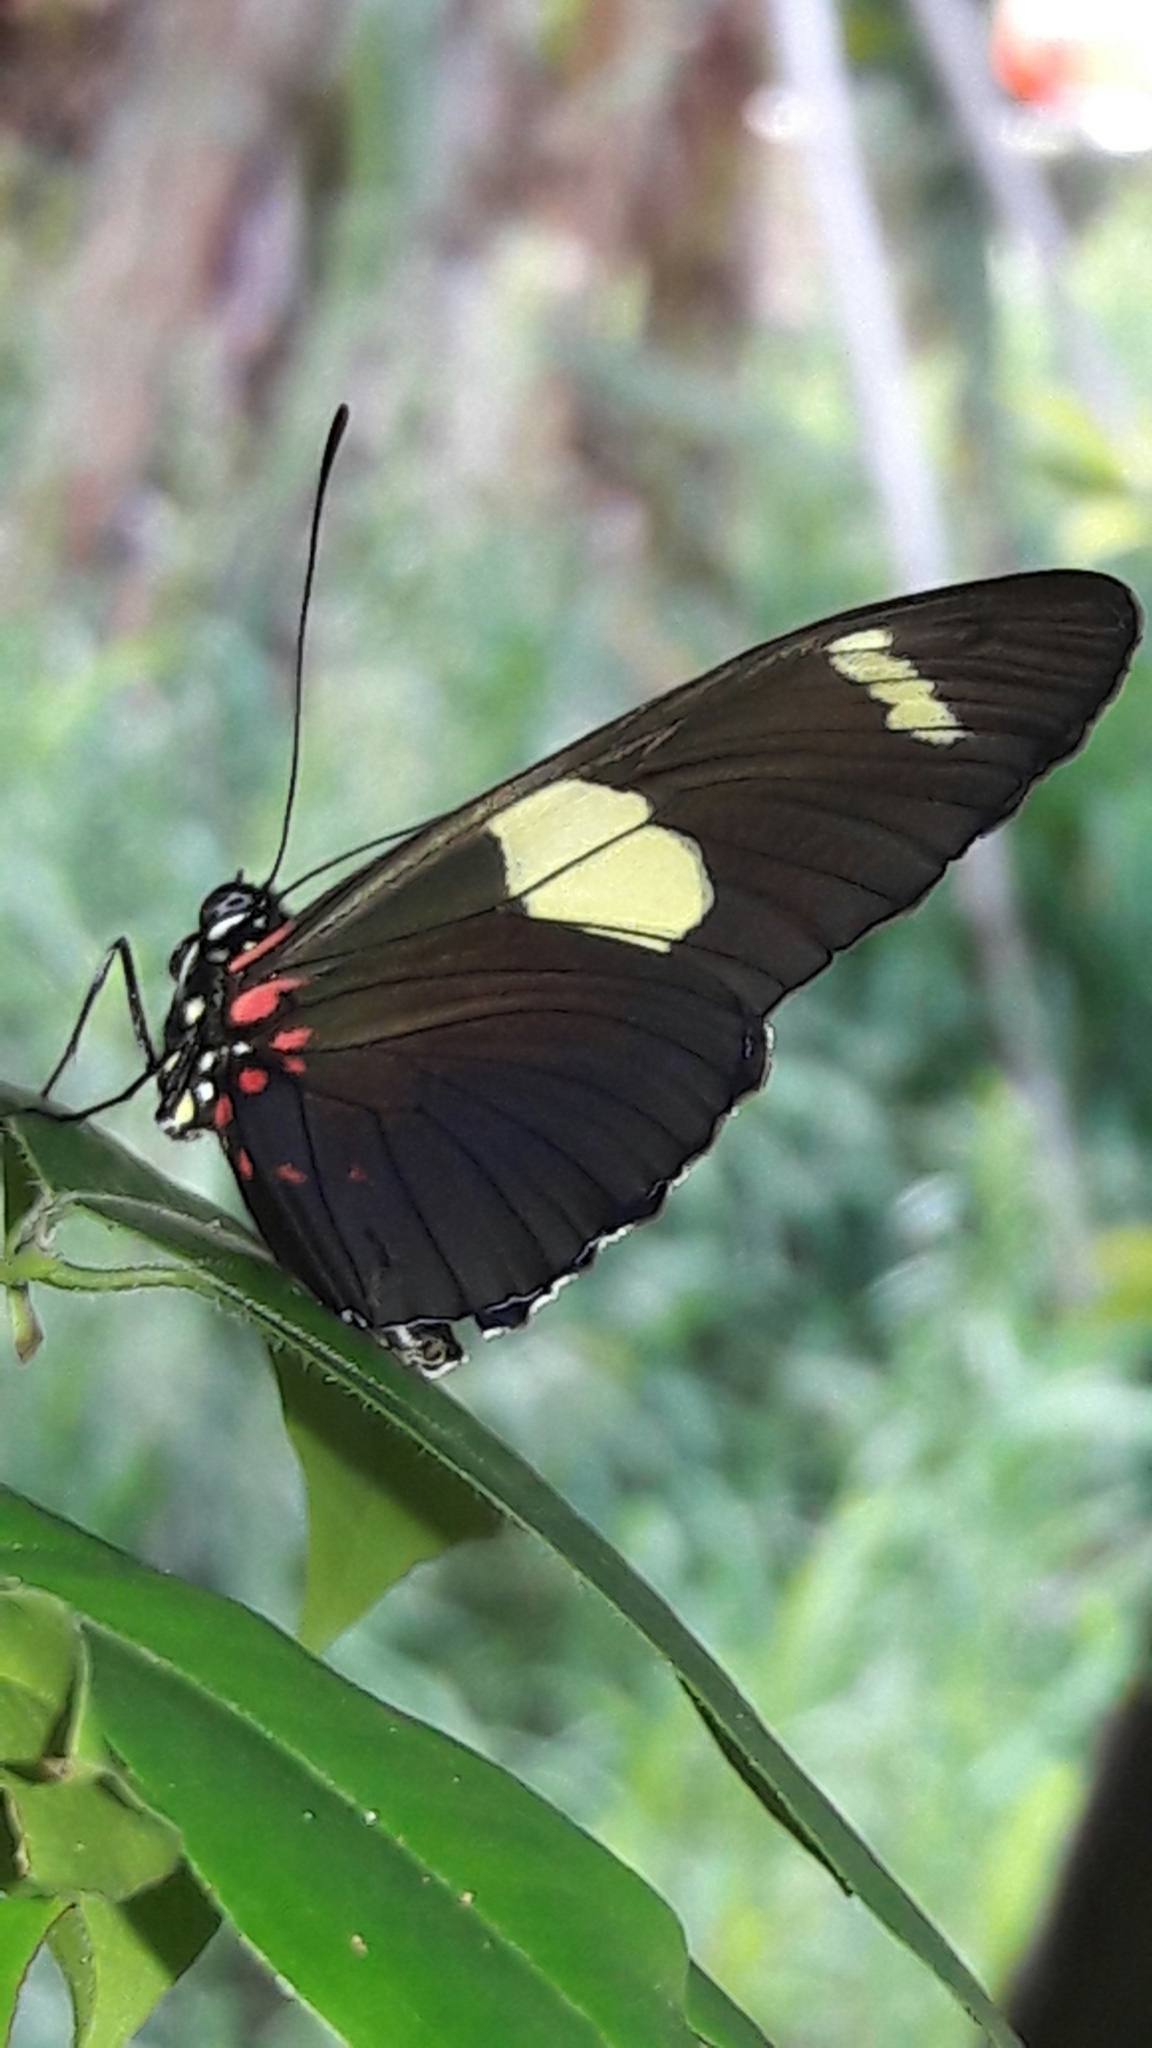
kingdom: Animalia
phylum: Arthropoda
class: Insecta
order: Lepidoptera
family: Nymphalidae
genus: Heliconius
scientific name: Heliconius sara
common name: Sara longwing
